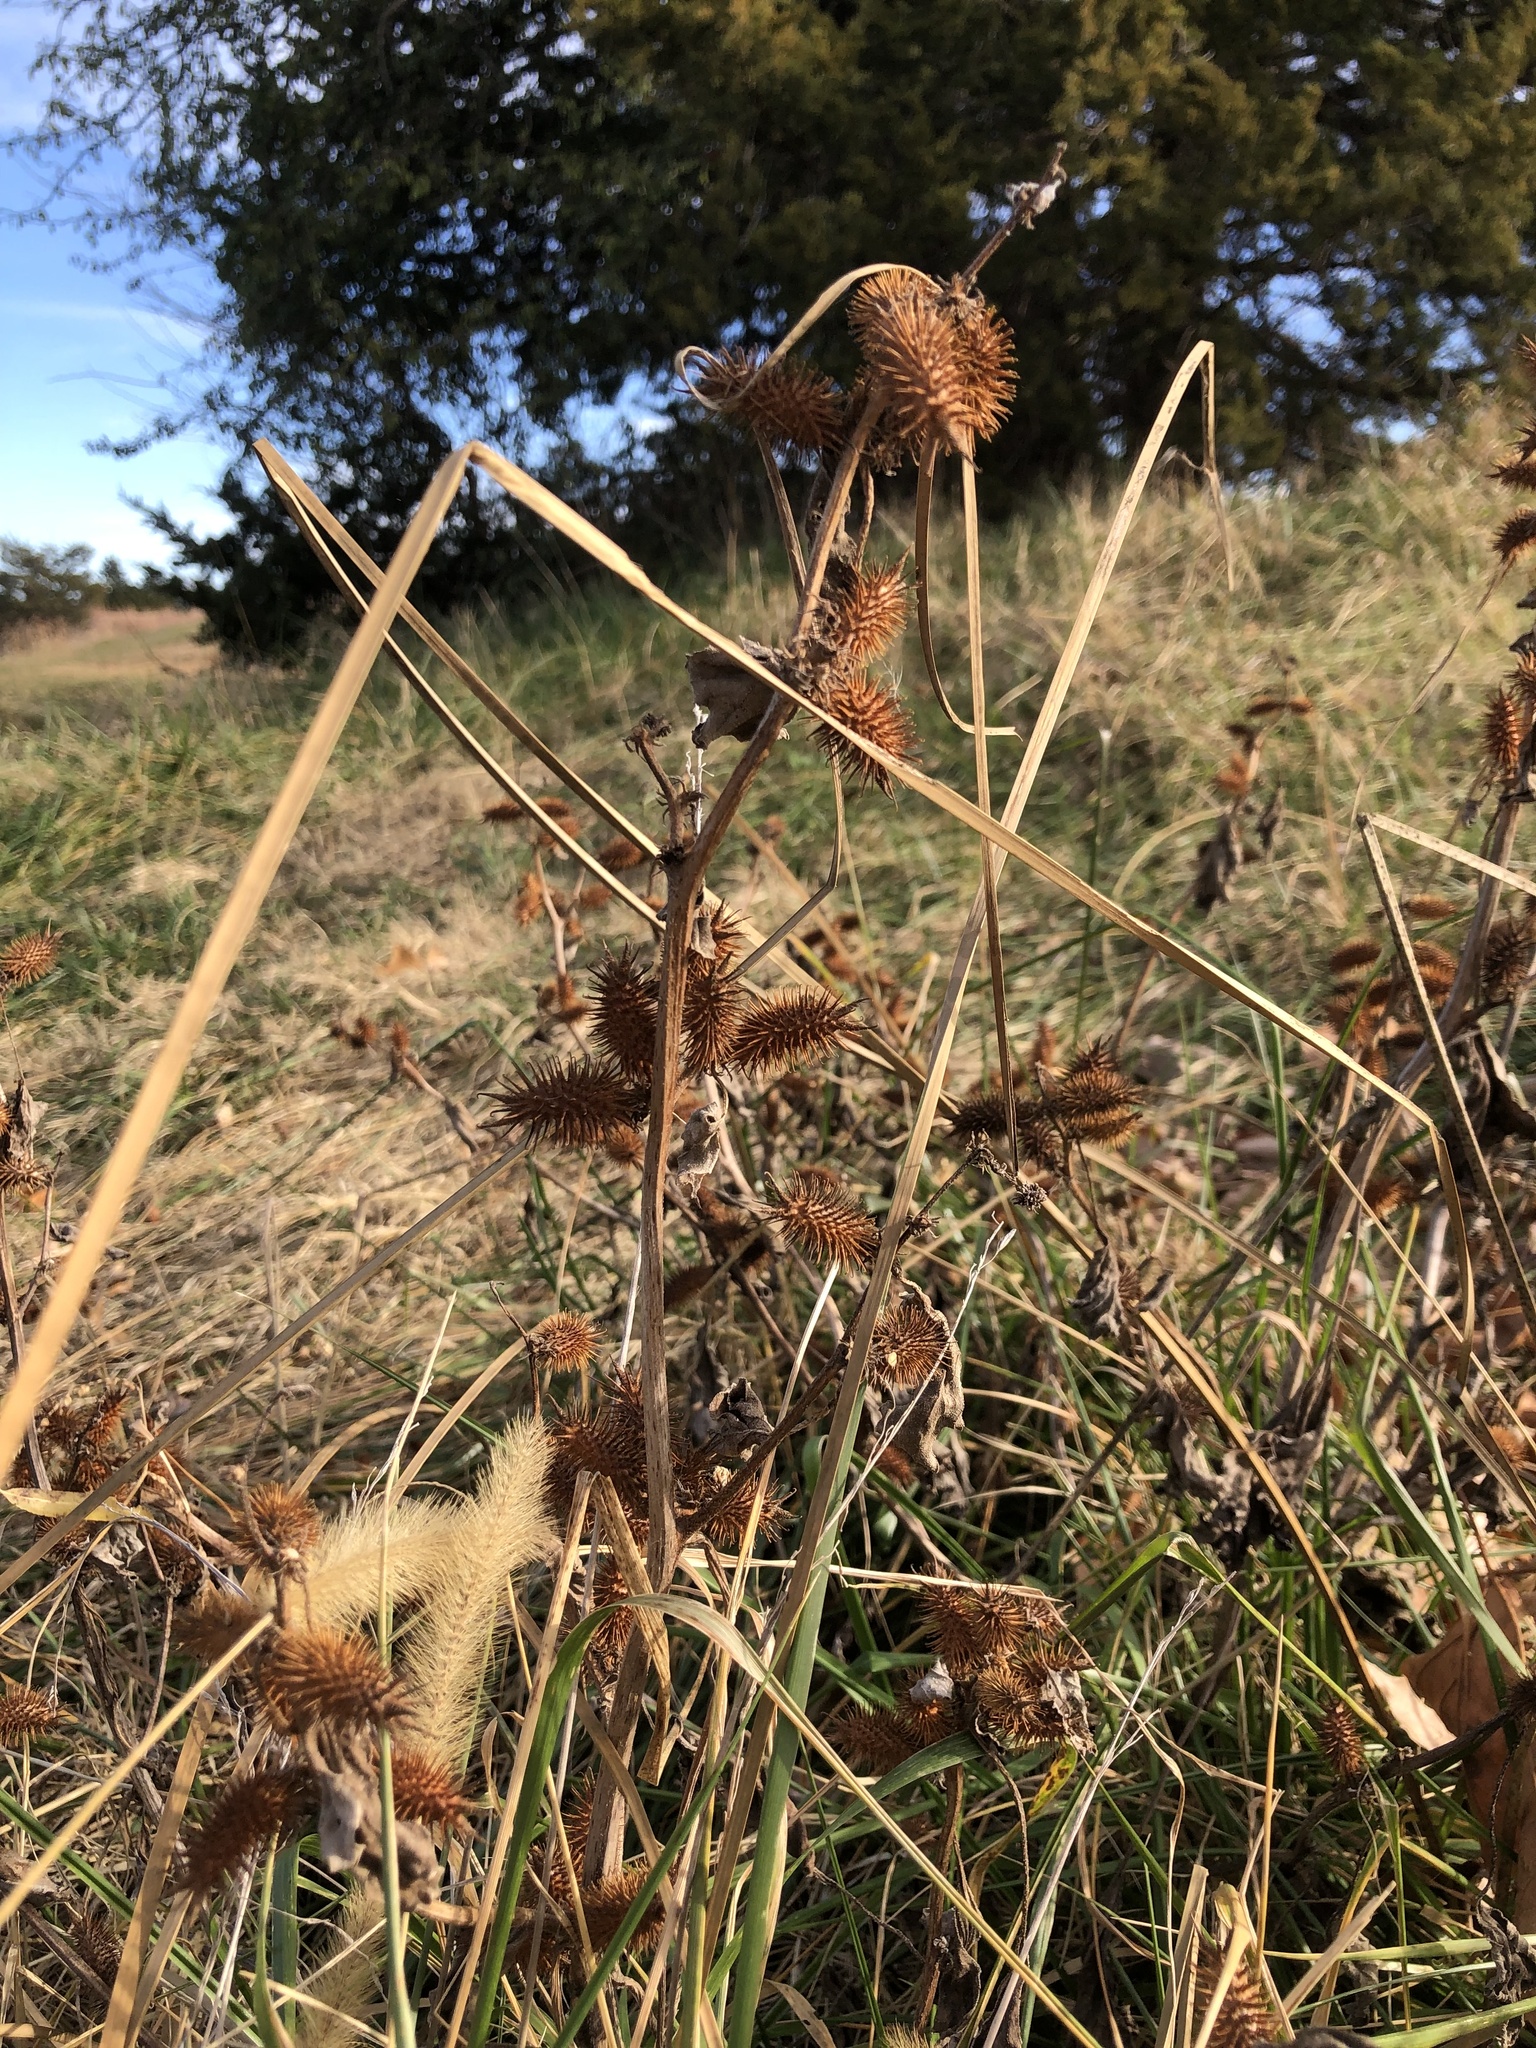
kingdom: Plantae
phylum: Tracheophyta
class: Magnoliopsida
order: Asterales
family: Asteraceae
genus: Xanthium
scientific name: Xanthium strumarium
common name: Rough cocklebur
